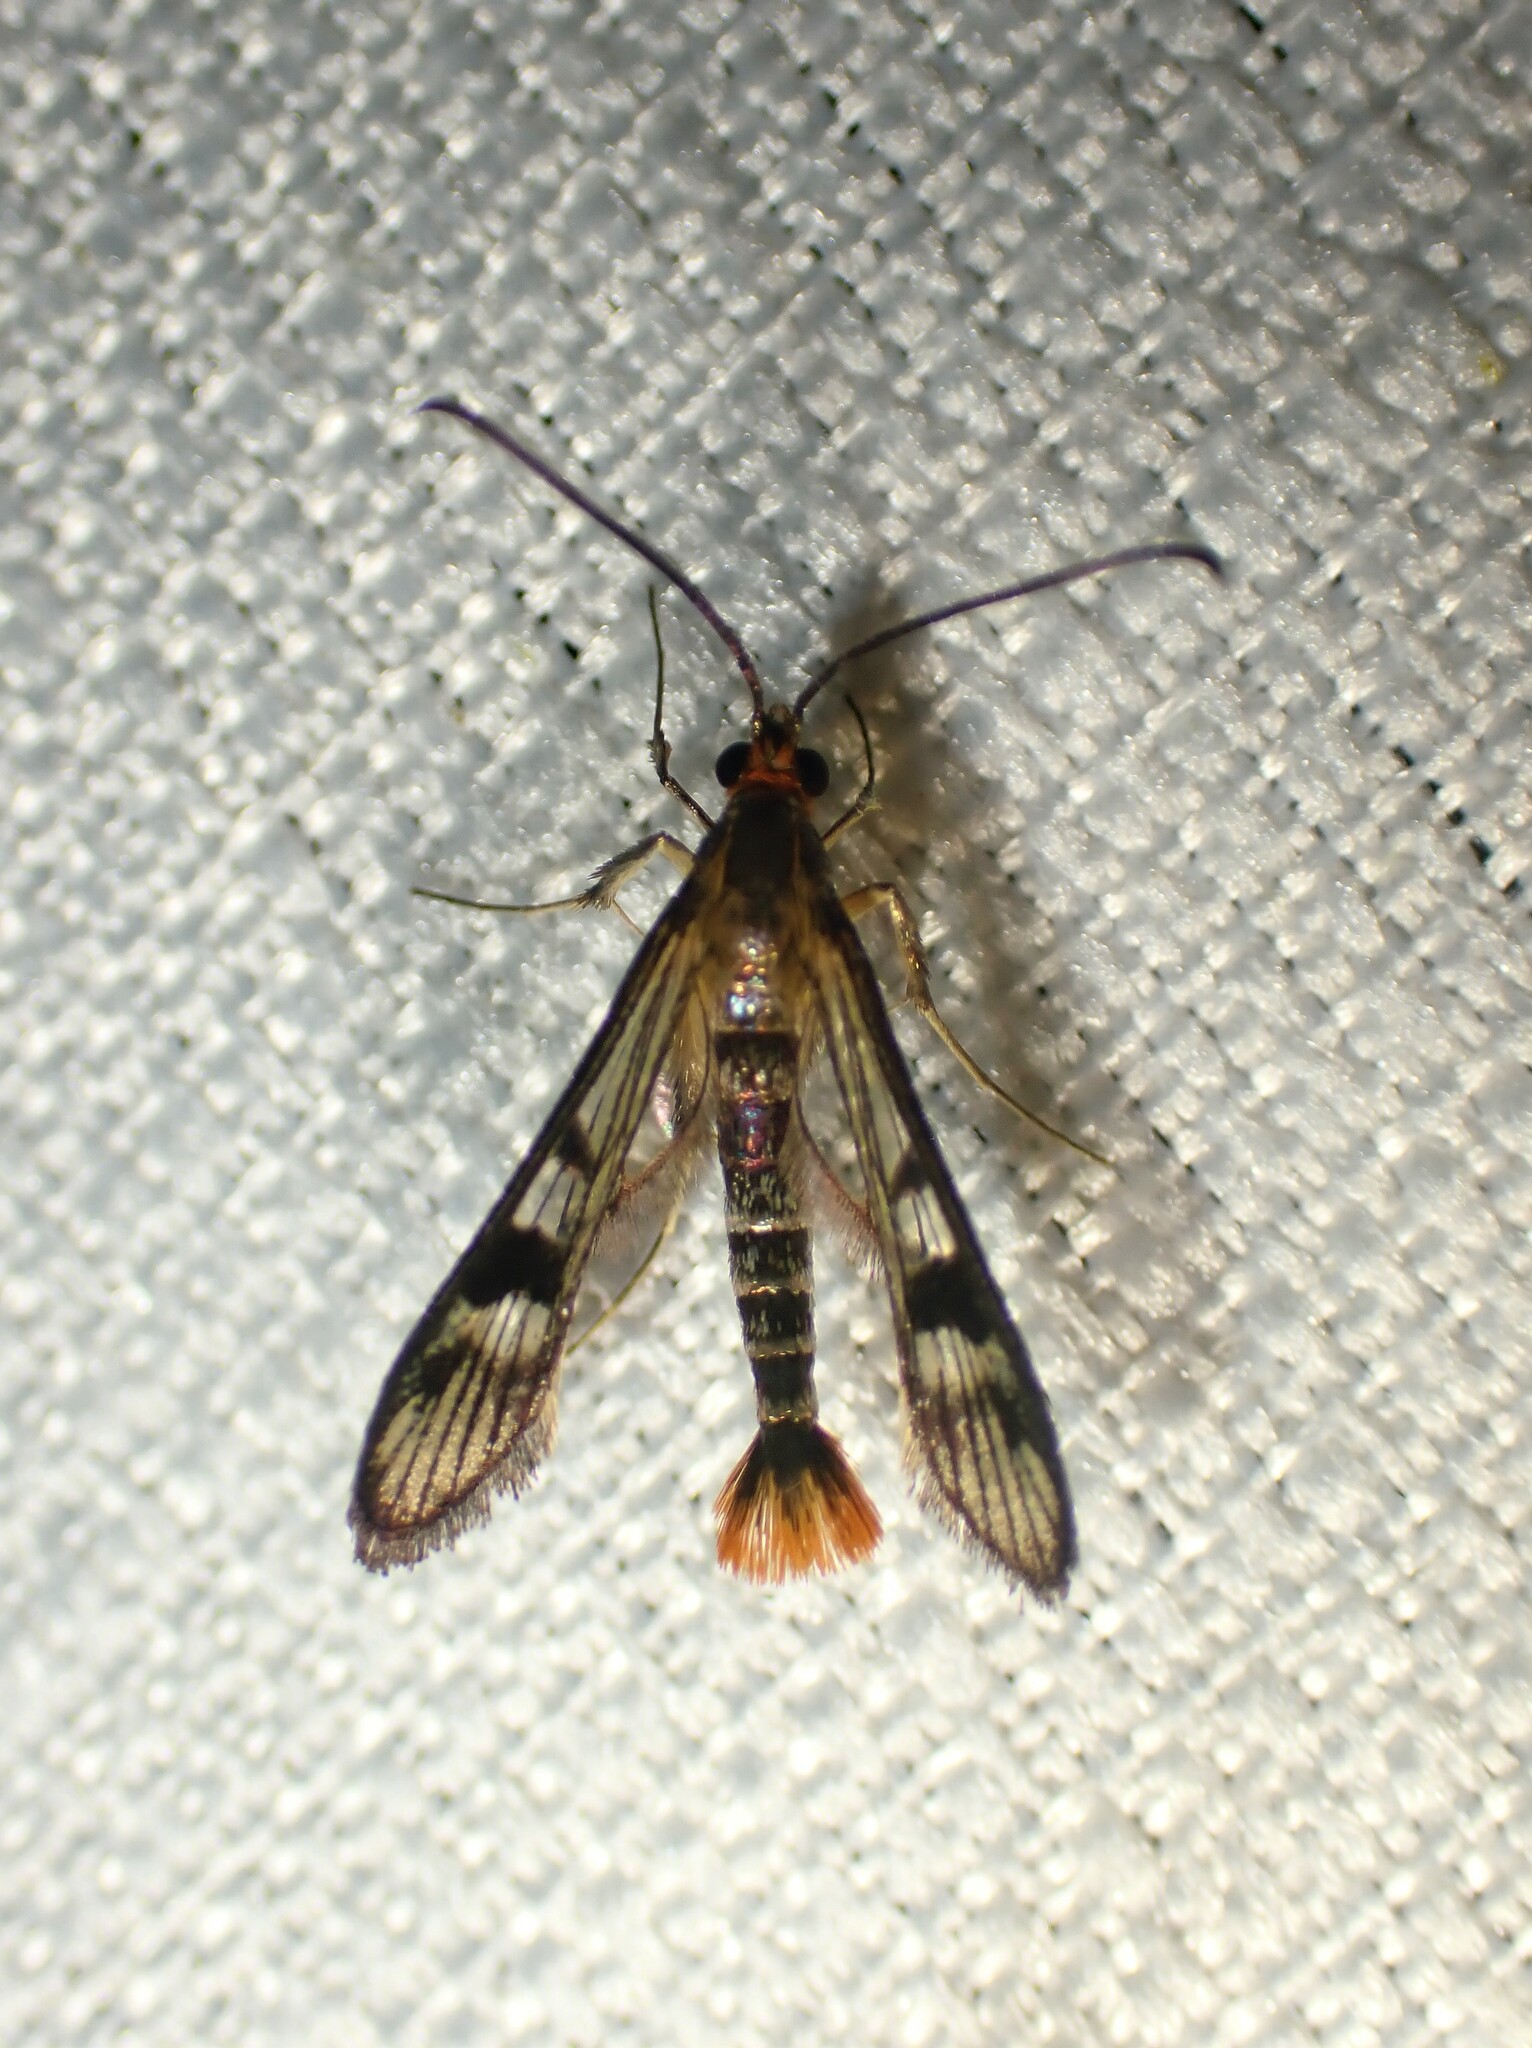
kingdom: Animalia
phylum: Arthropoda
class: Insecta
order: Lepidoptera
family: Sesiidae
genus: Synanthedon
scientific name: Synanthedon acerni
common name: Maple callus borer moth
